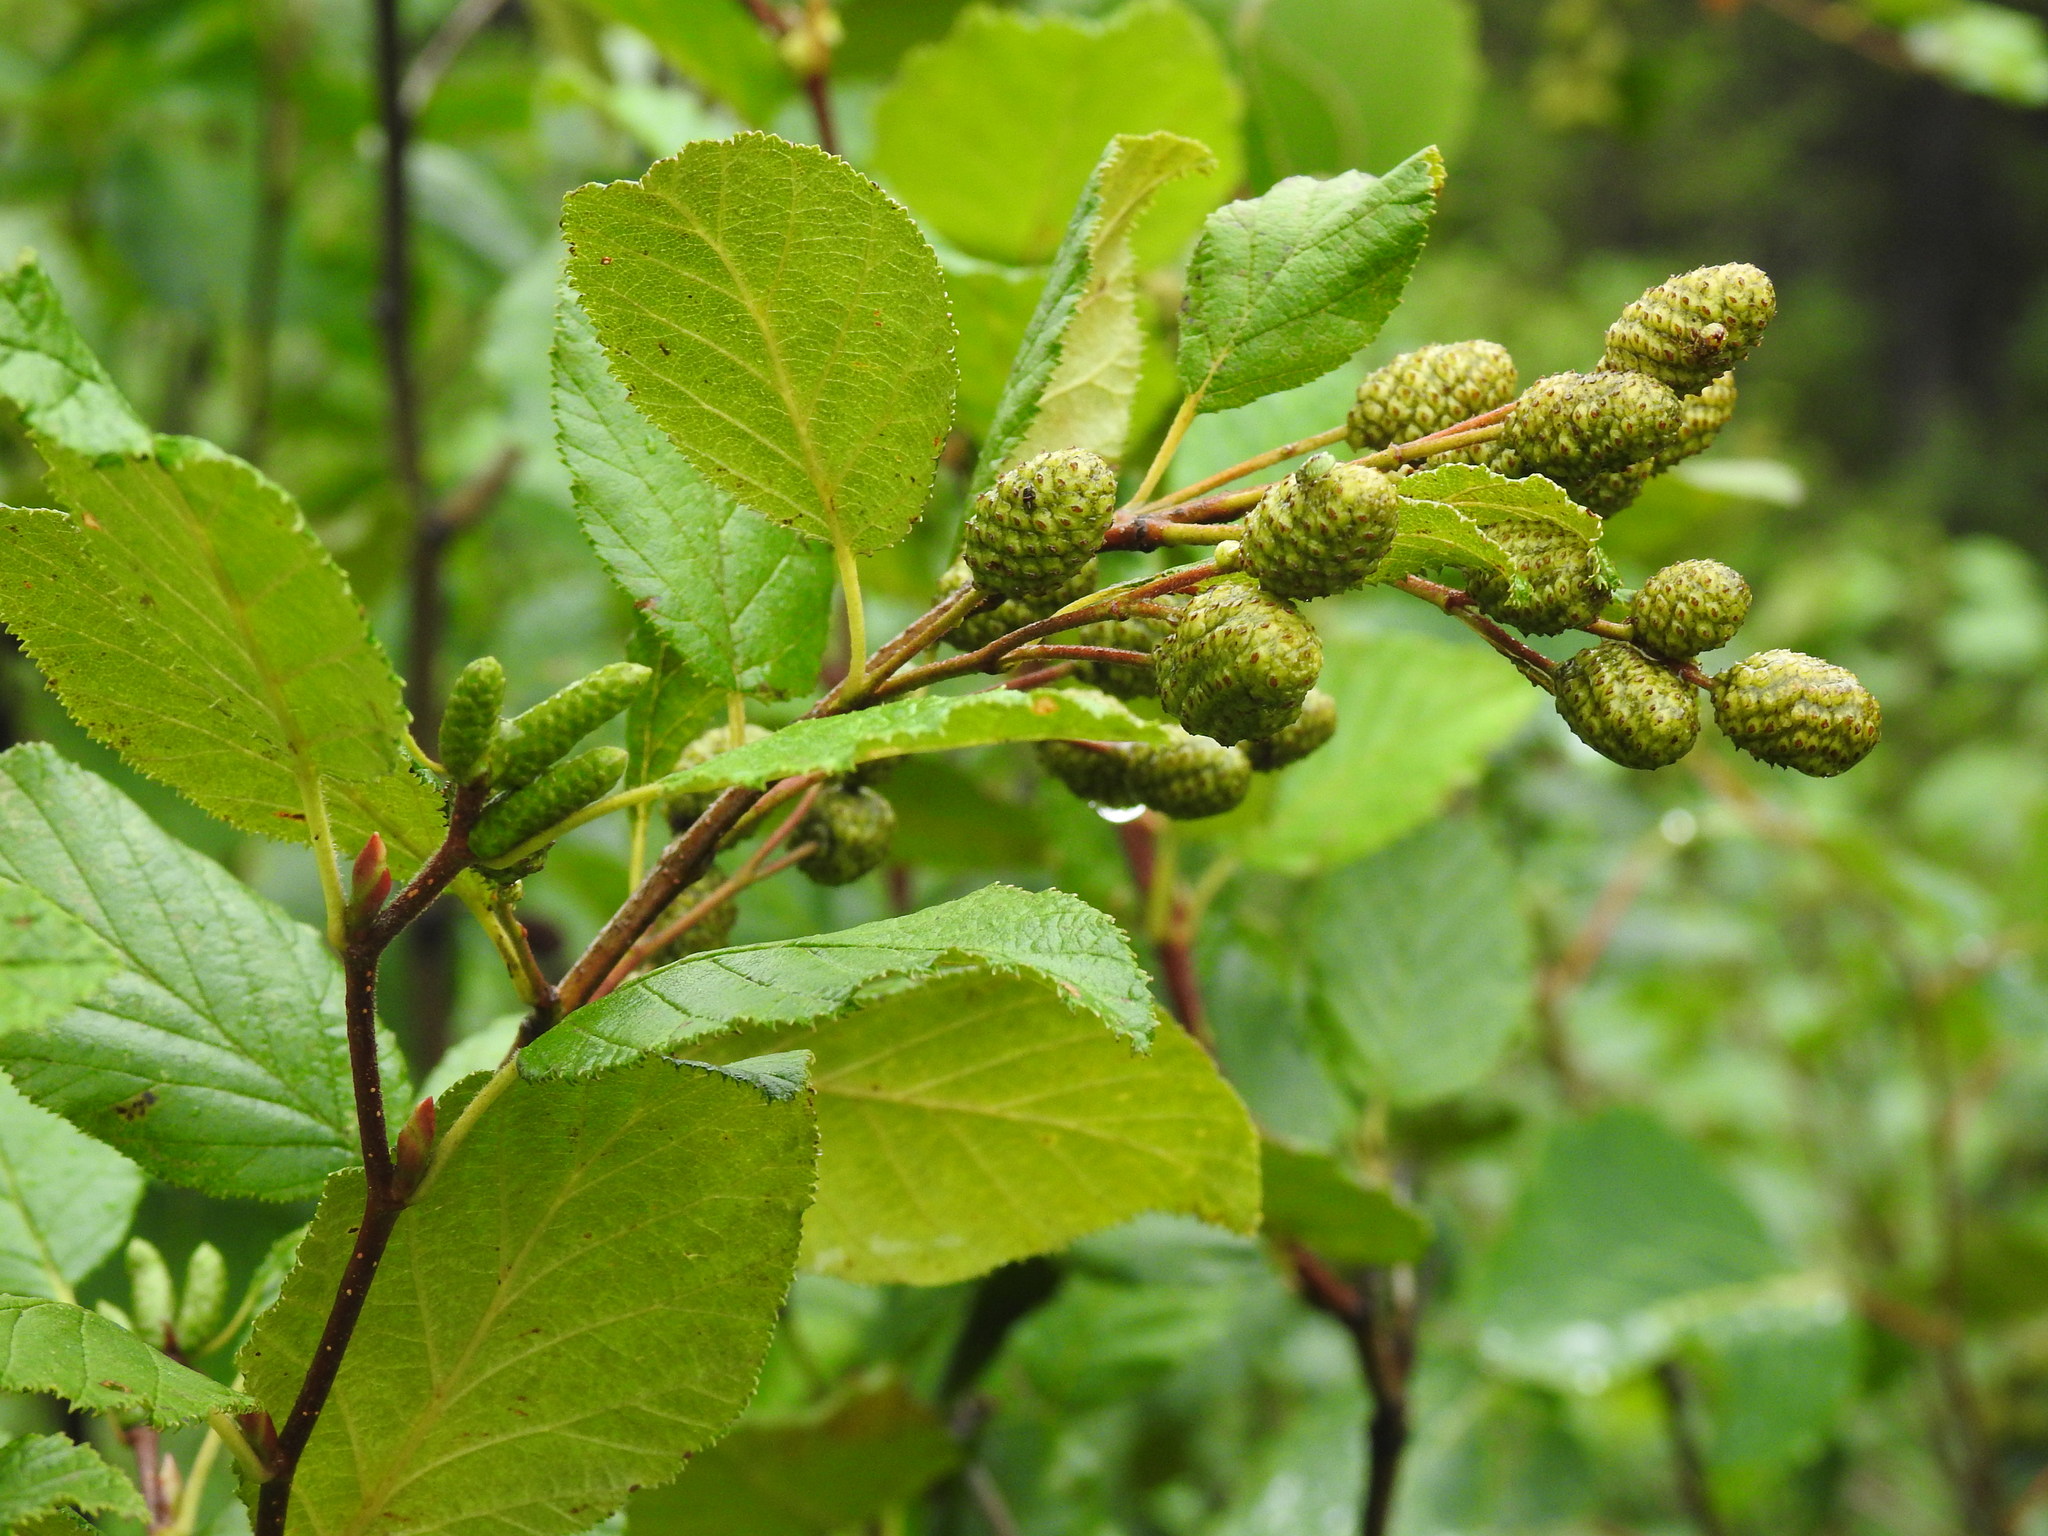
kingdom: Plantae
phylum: Tracheophyta
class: Magnoliopsida
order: Fagales
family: Betulaceae
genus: Alnus
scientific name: Alnus alnobetula
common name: Green alder
